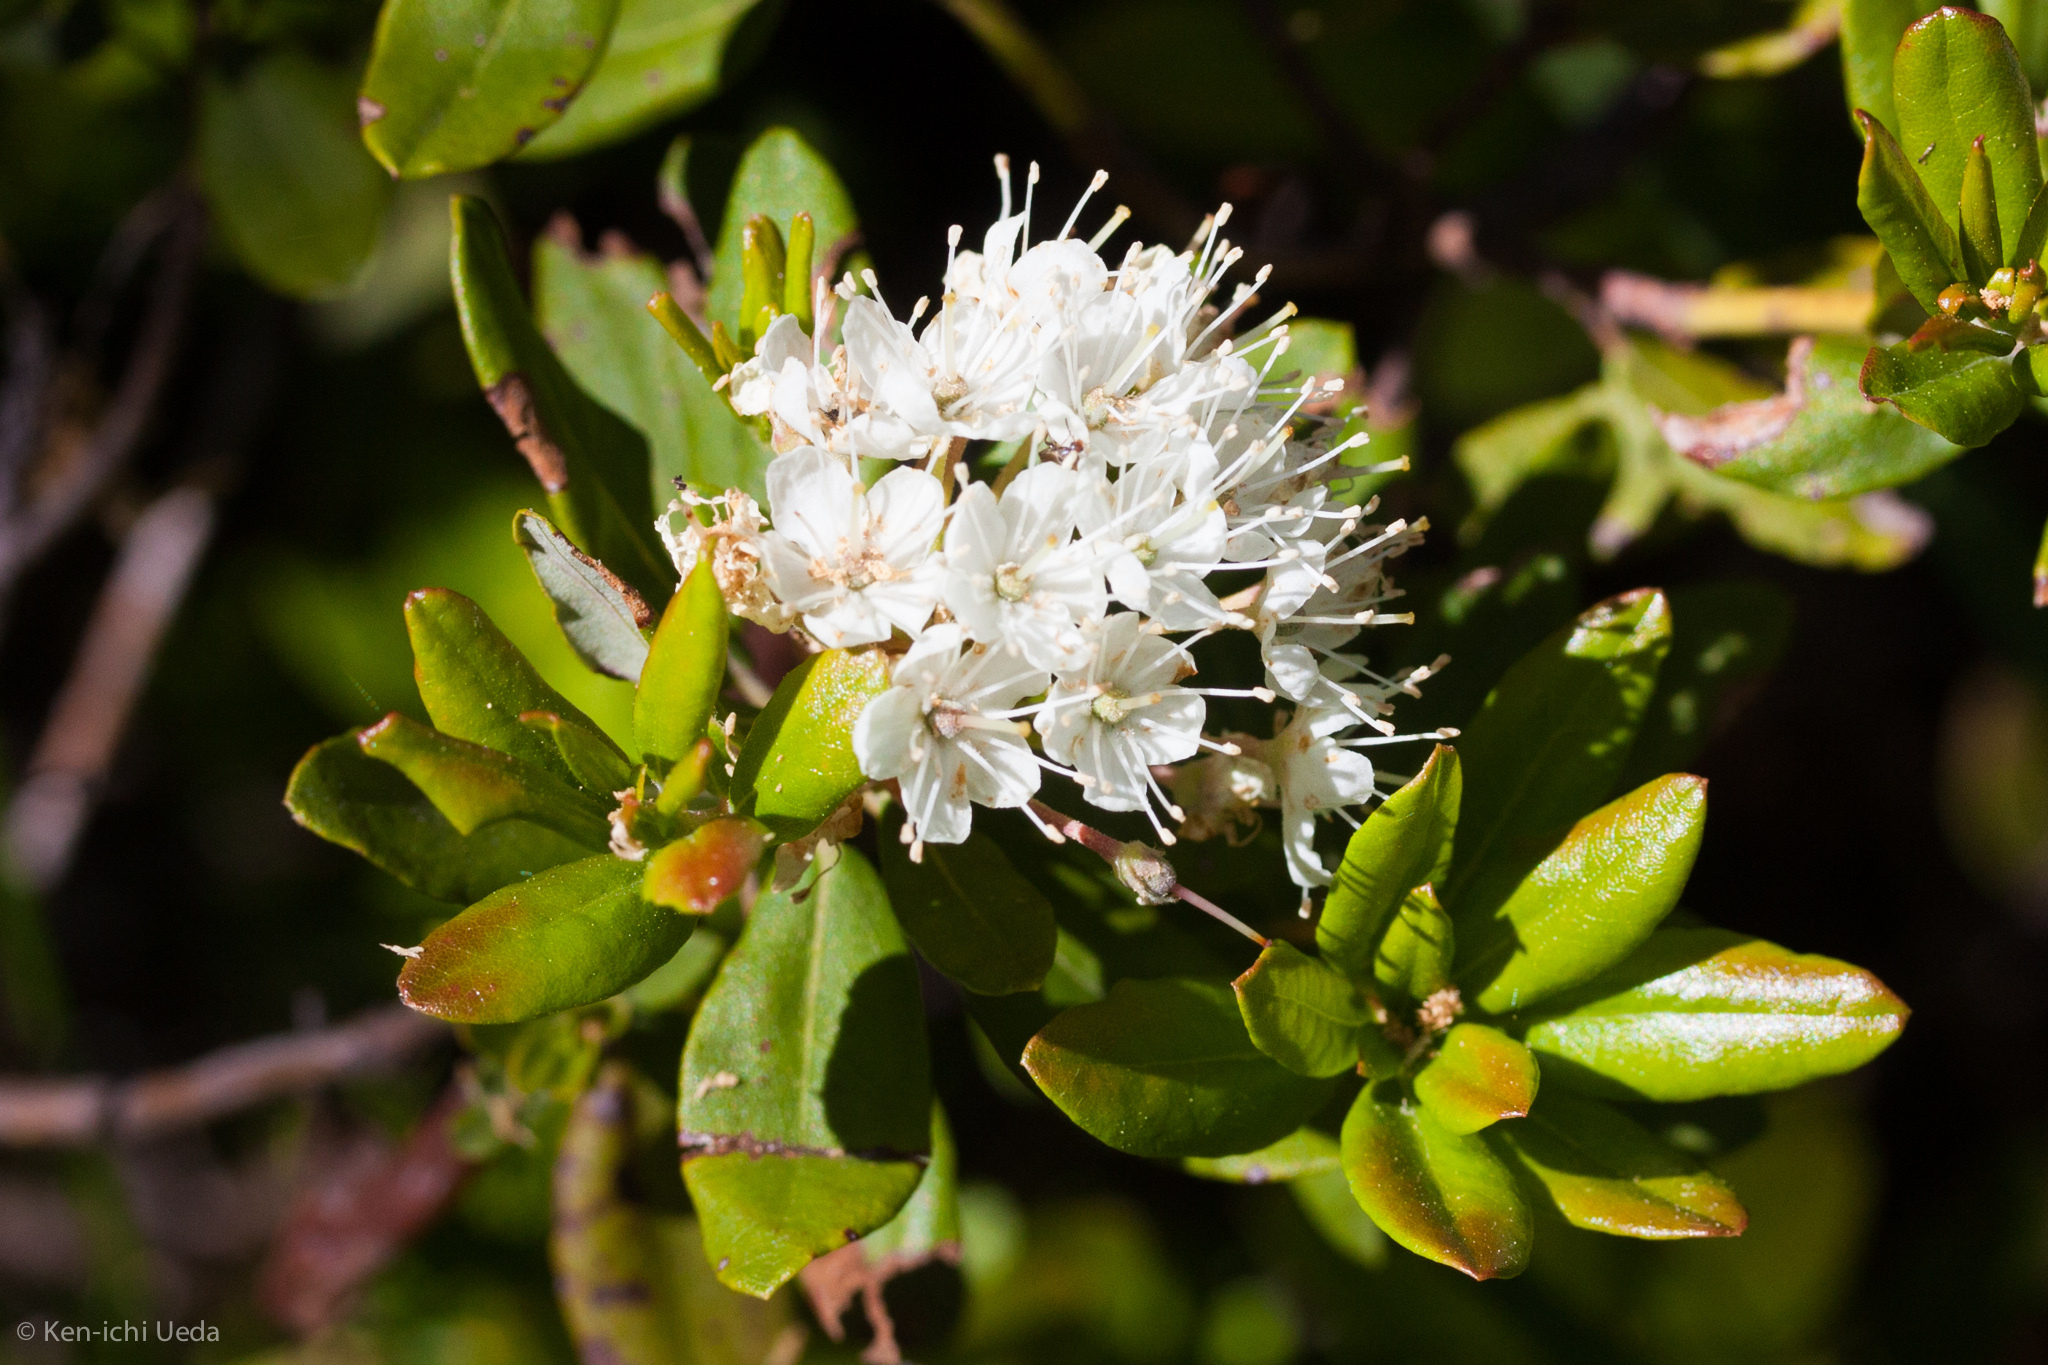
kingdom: Plantae
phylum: Tracheophyta
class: Magnoliopsida
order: Ericales
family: Ericaceae
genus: Rhododendron
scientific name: Rhododendron columbianum
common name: Western labrador tea
